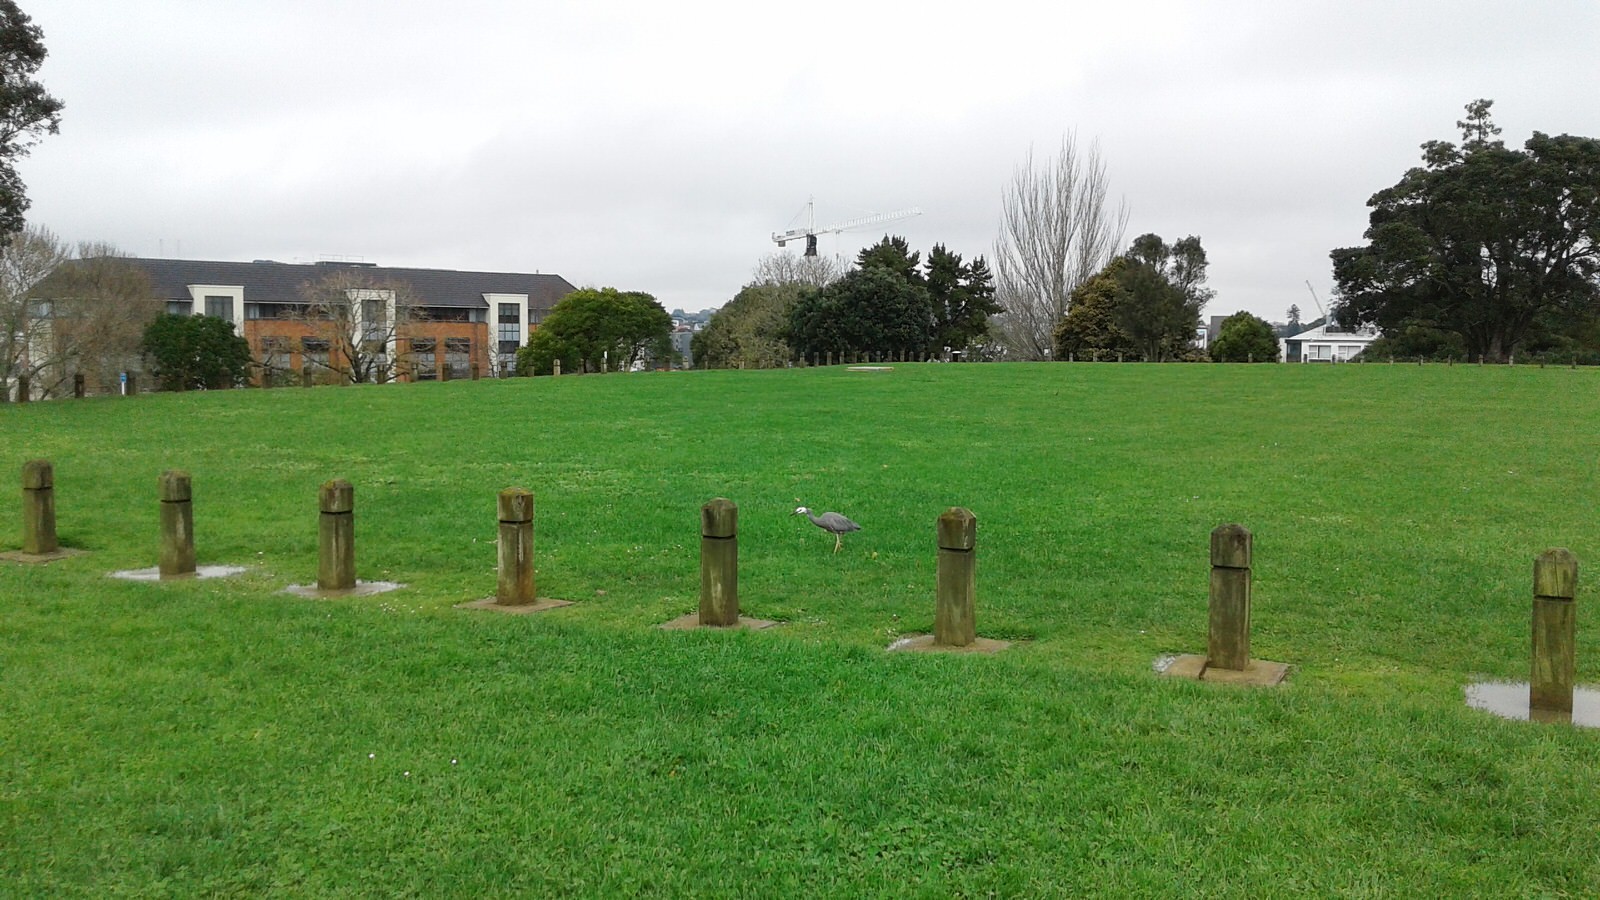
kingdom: Animalia
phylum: Chordata
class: Aves
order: Pelecaniformes
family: Ardeidae
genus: Egretta
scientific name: Egretta novaehollandiae
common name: White-faced heron
